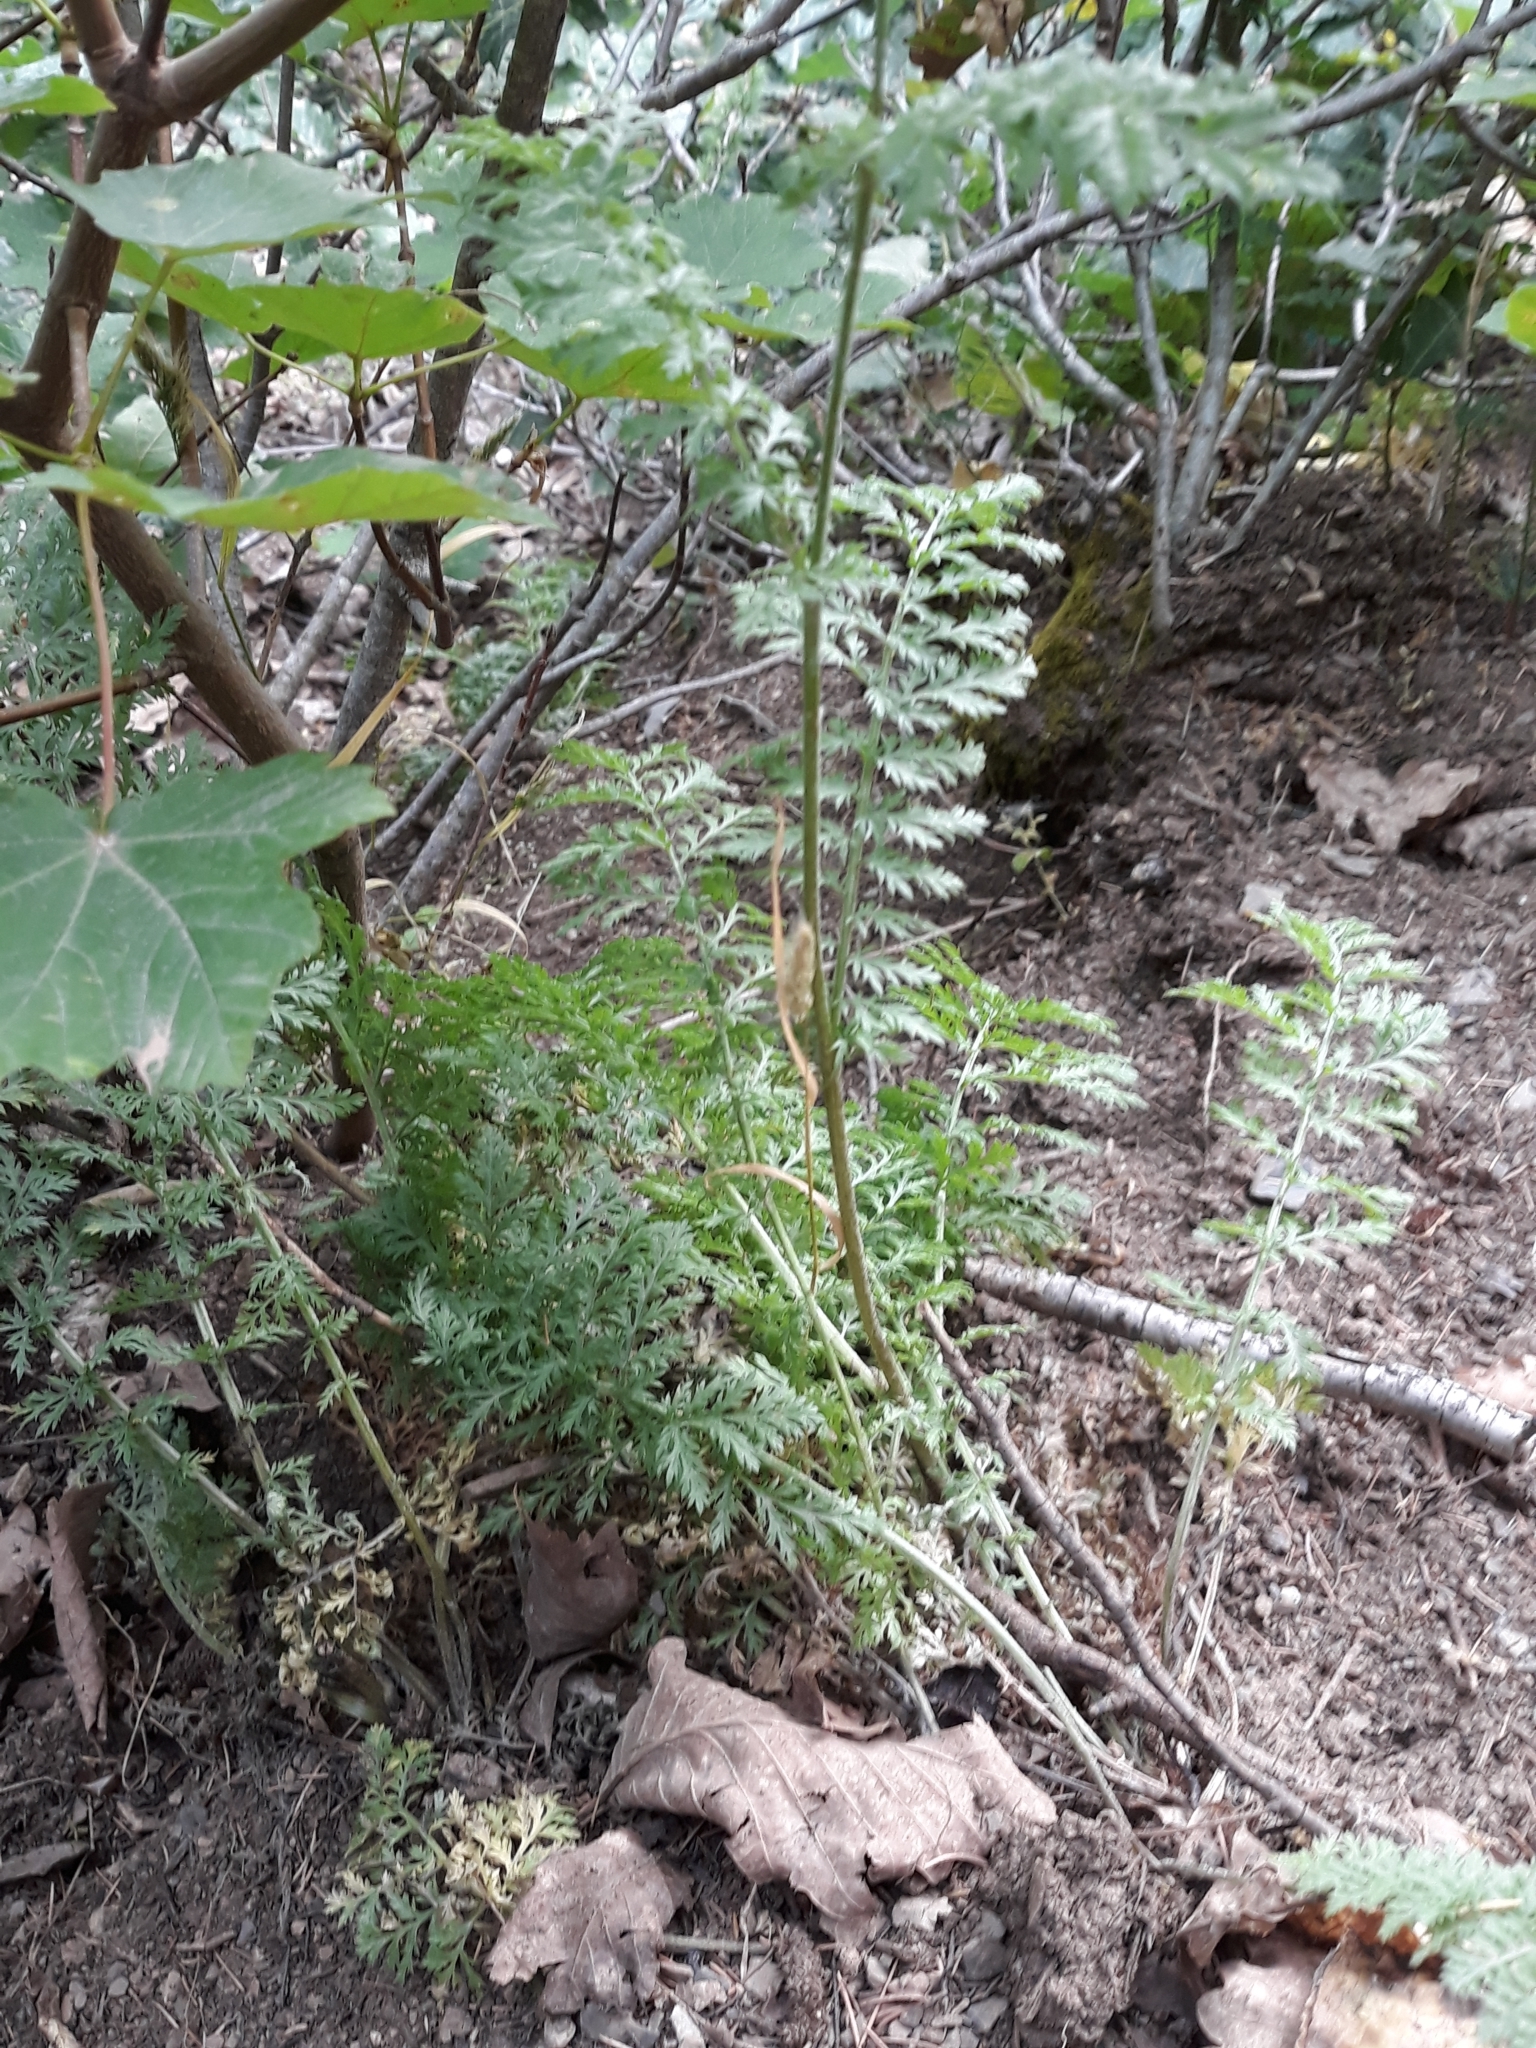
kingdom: Plantae
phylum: Tracheophyta
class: Magnoliopsida
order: Asterales
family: Asteraceae
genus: Tanacetum
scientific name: Tanacetum corymbosum
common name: Scentless feverfew
